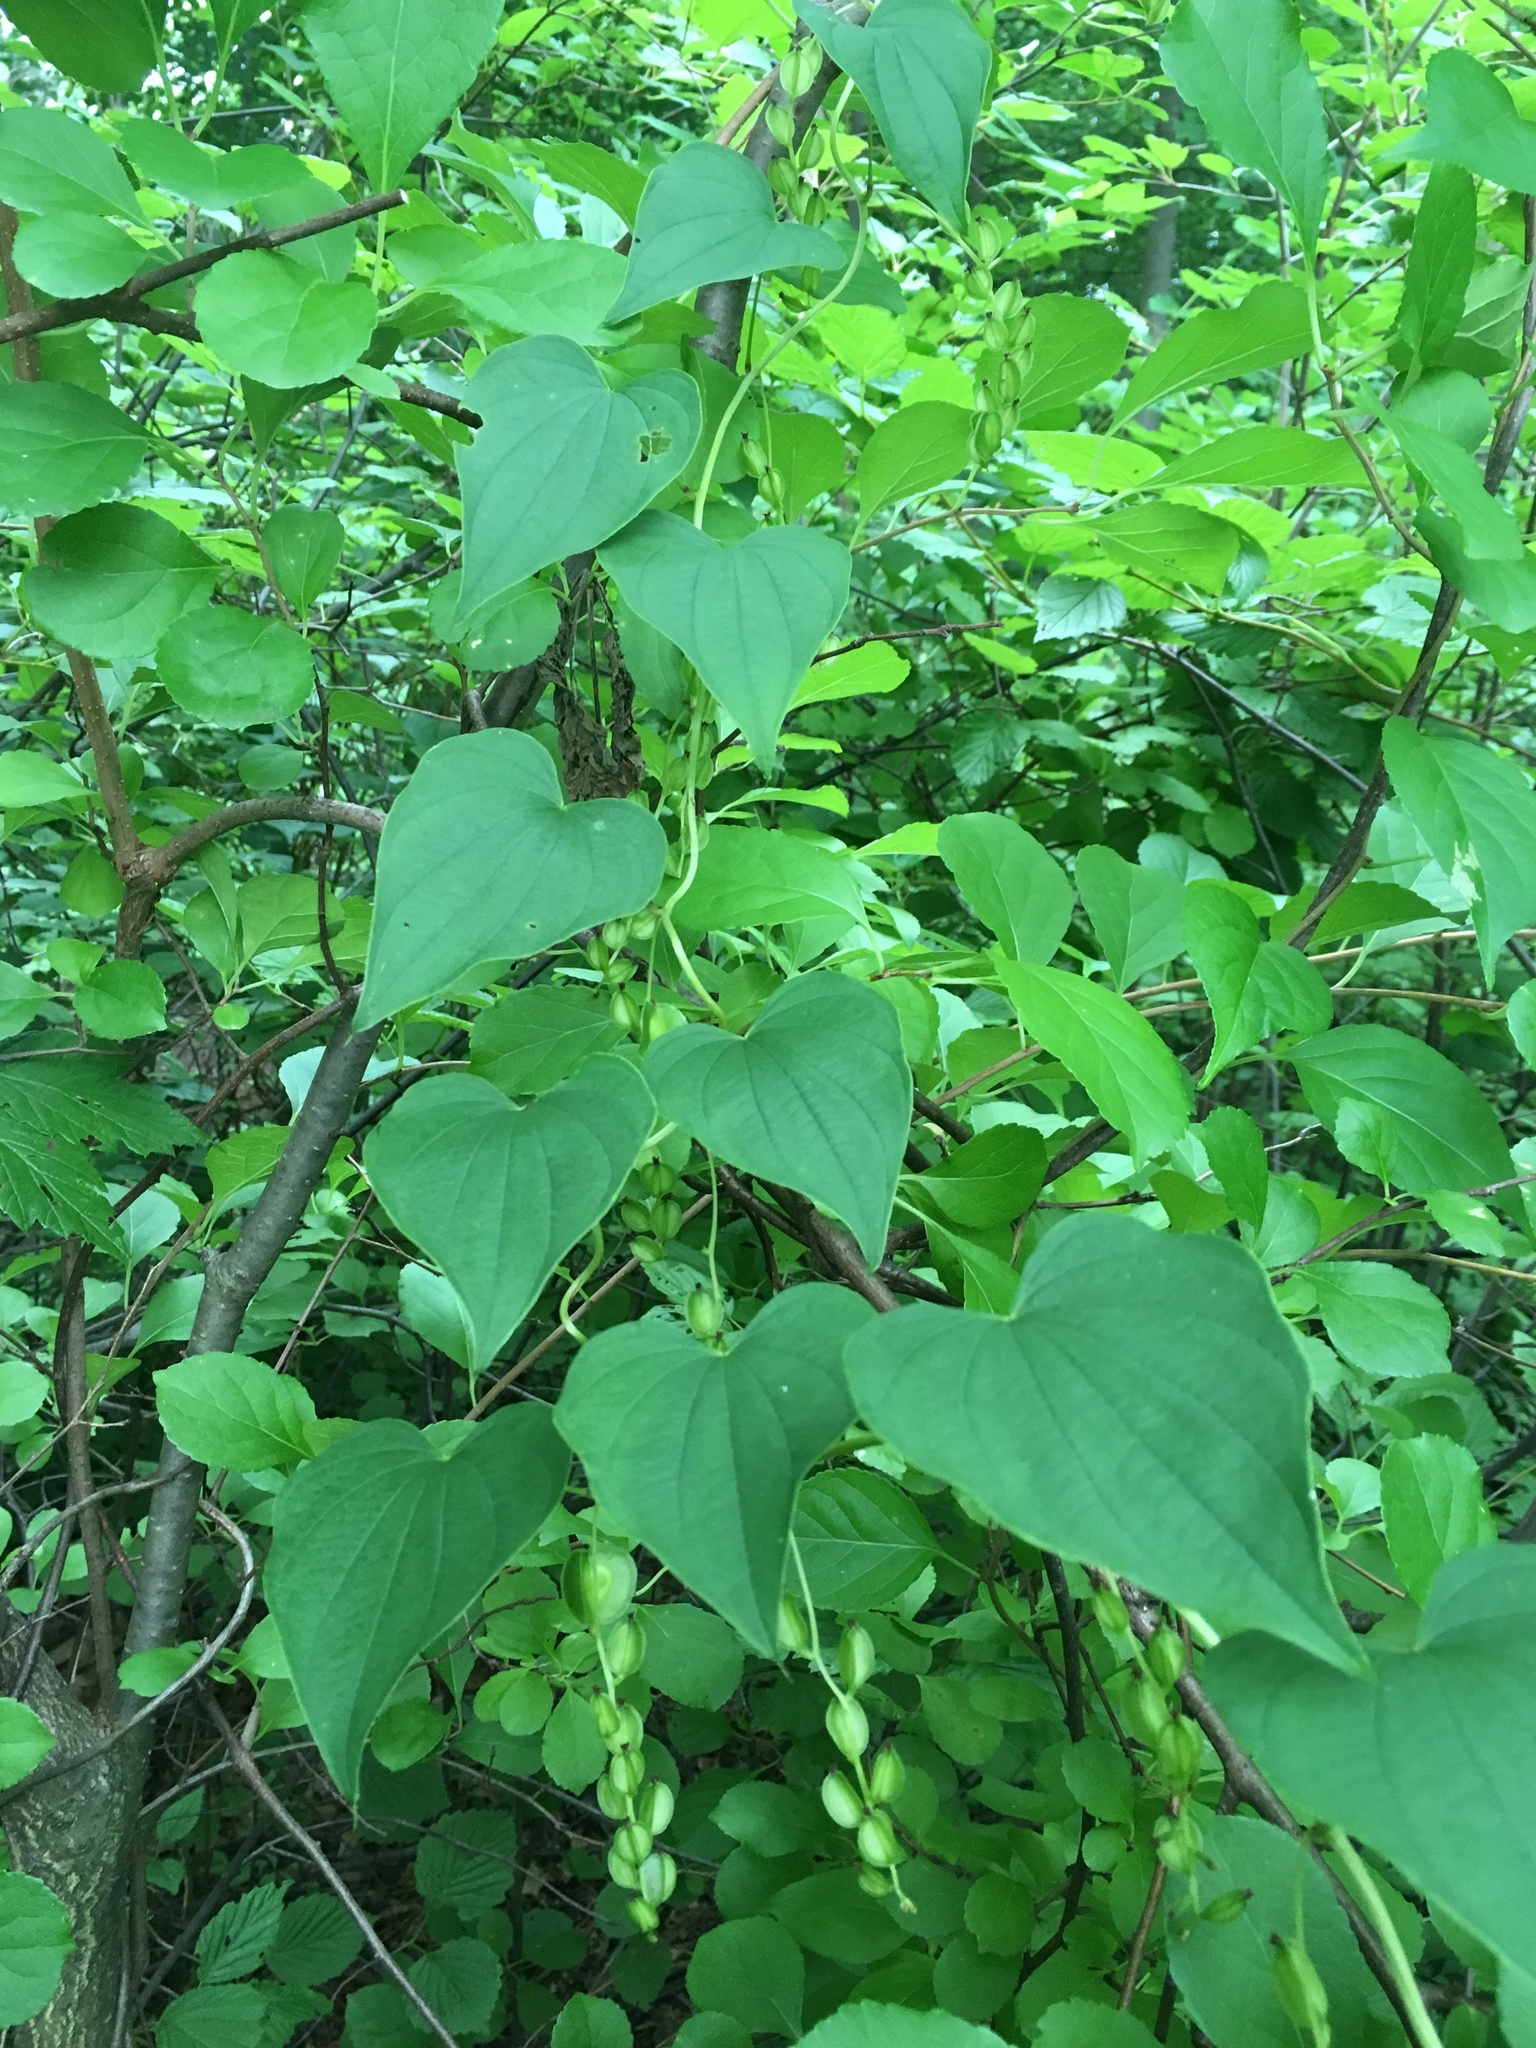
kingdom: Plantae
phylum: Tracheophyta
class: Liliopsida
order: Dioscoreales
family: Dioscoreaceae
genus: Dioscorea
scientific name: Dioscorea villosa
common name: Wild yam
